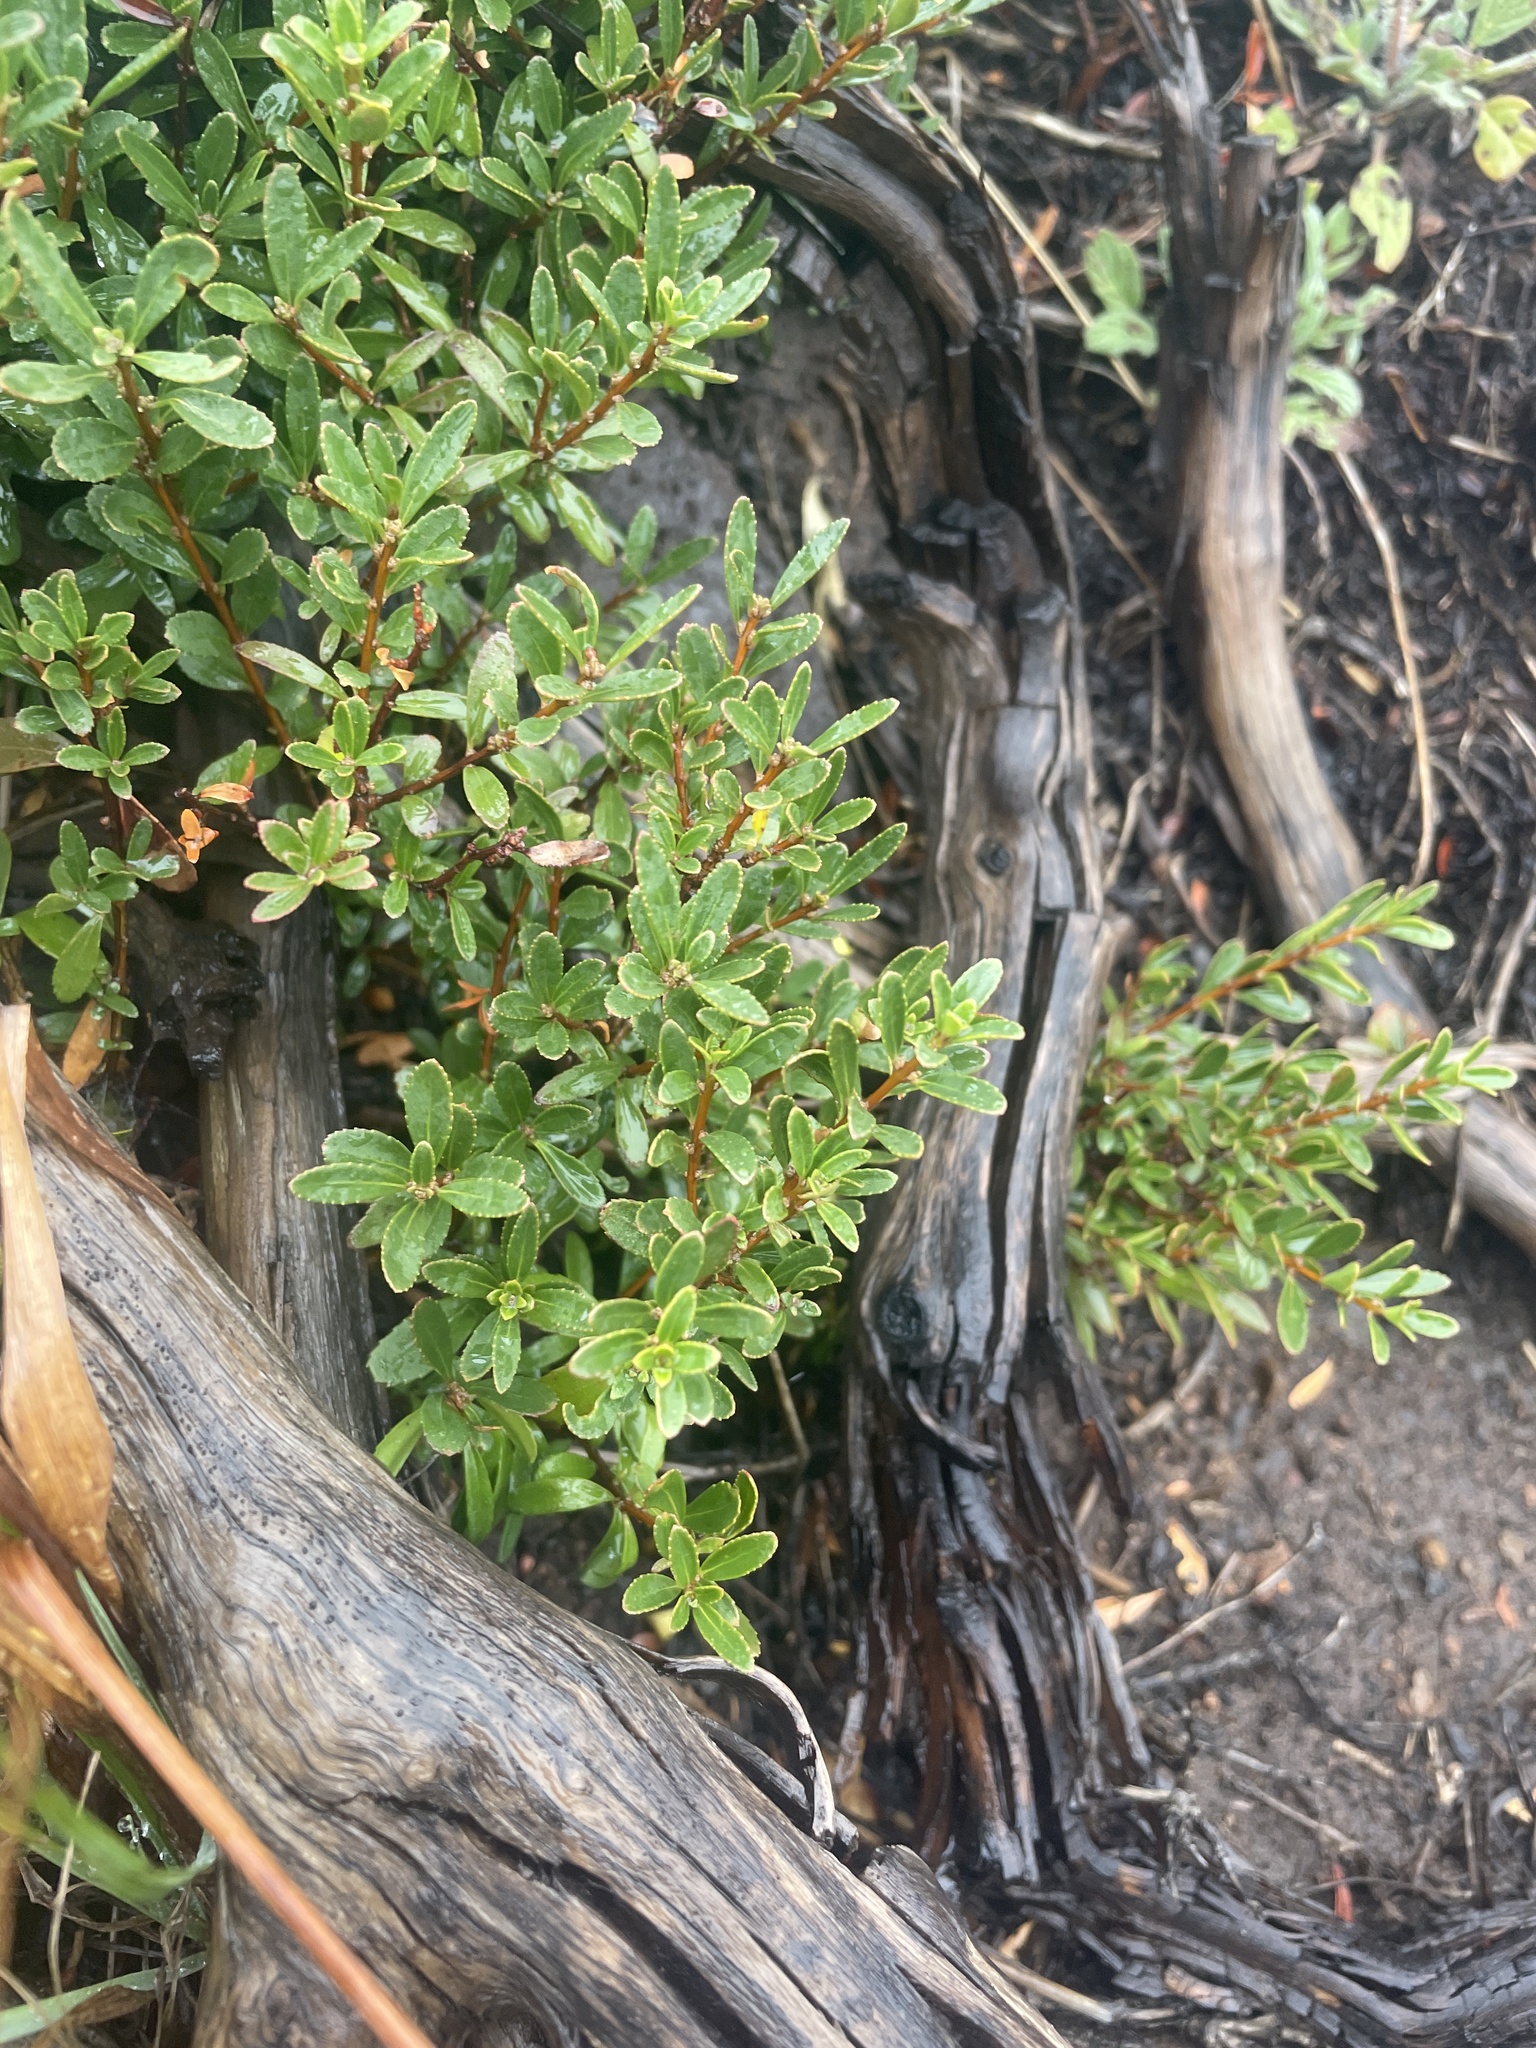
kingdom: Plantae
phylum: Tracheophyta
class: Magnoliopsida
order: Celastrales
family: Celastraceae
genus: Paxistima
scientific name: Paxistima myrsinites
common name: Mountain-lover
